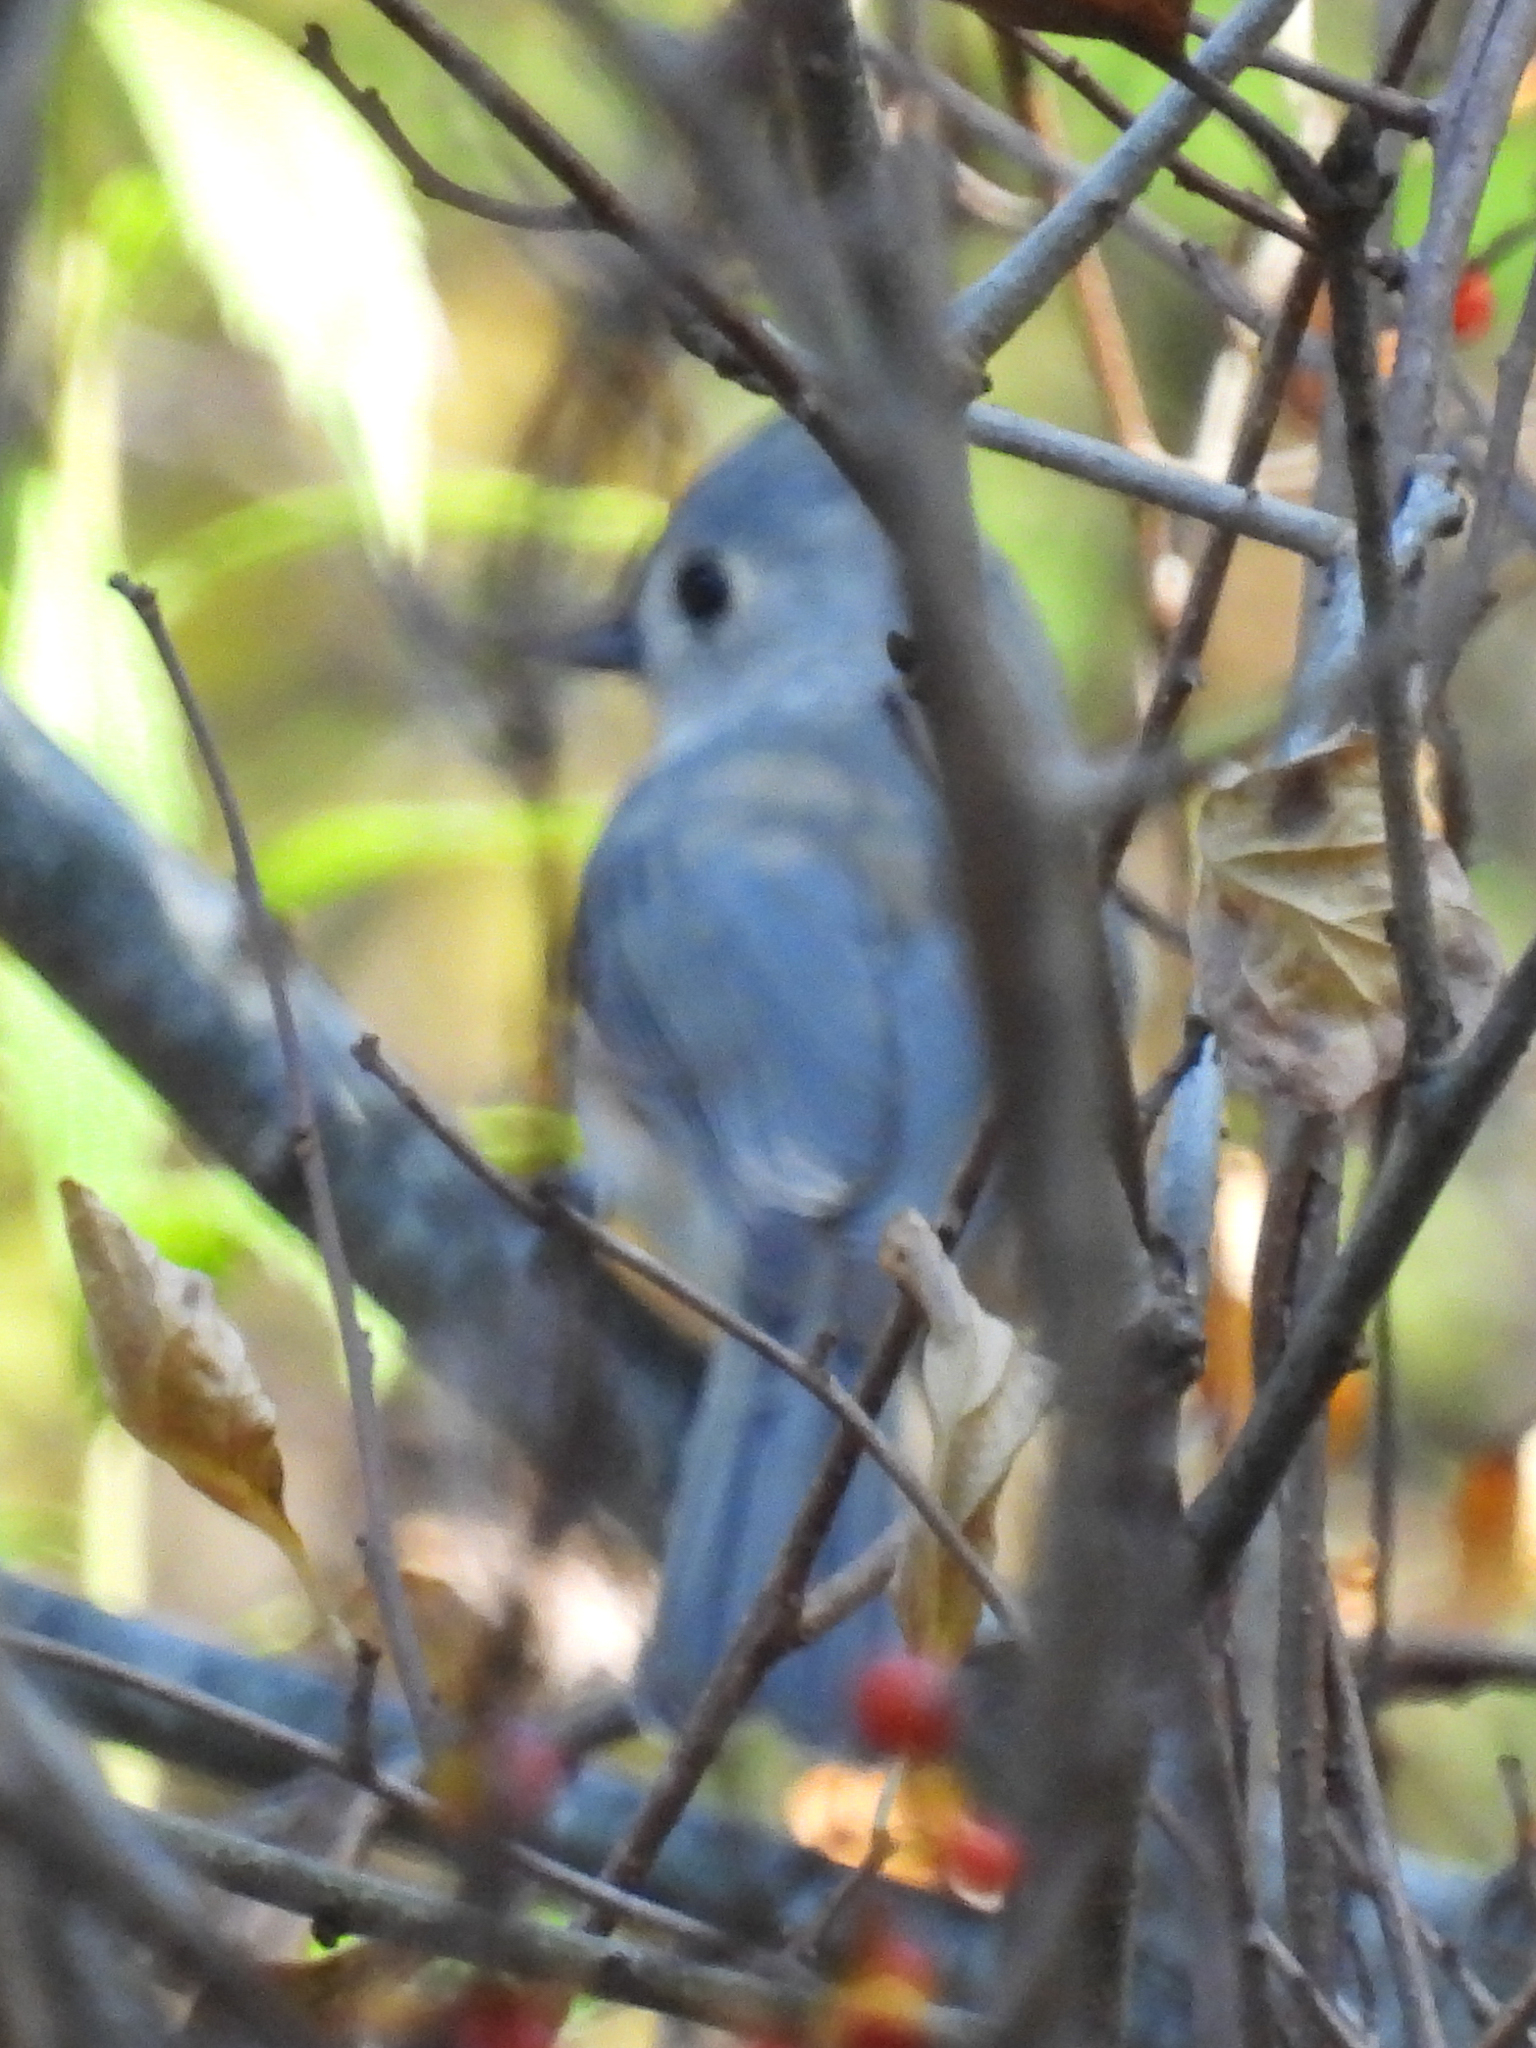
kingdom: Animalia
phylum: Chordata
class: Aves
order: Passeriformes
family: Paridae
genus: Baeolophus
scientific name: Baeolophus bicolor
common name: Tufted titmouse
